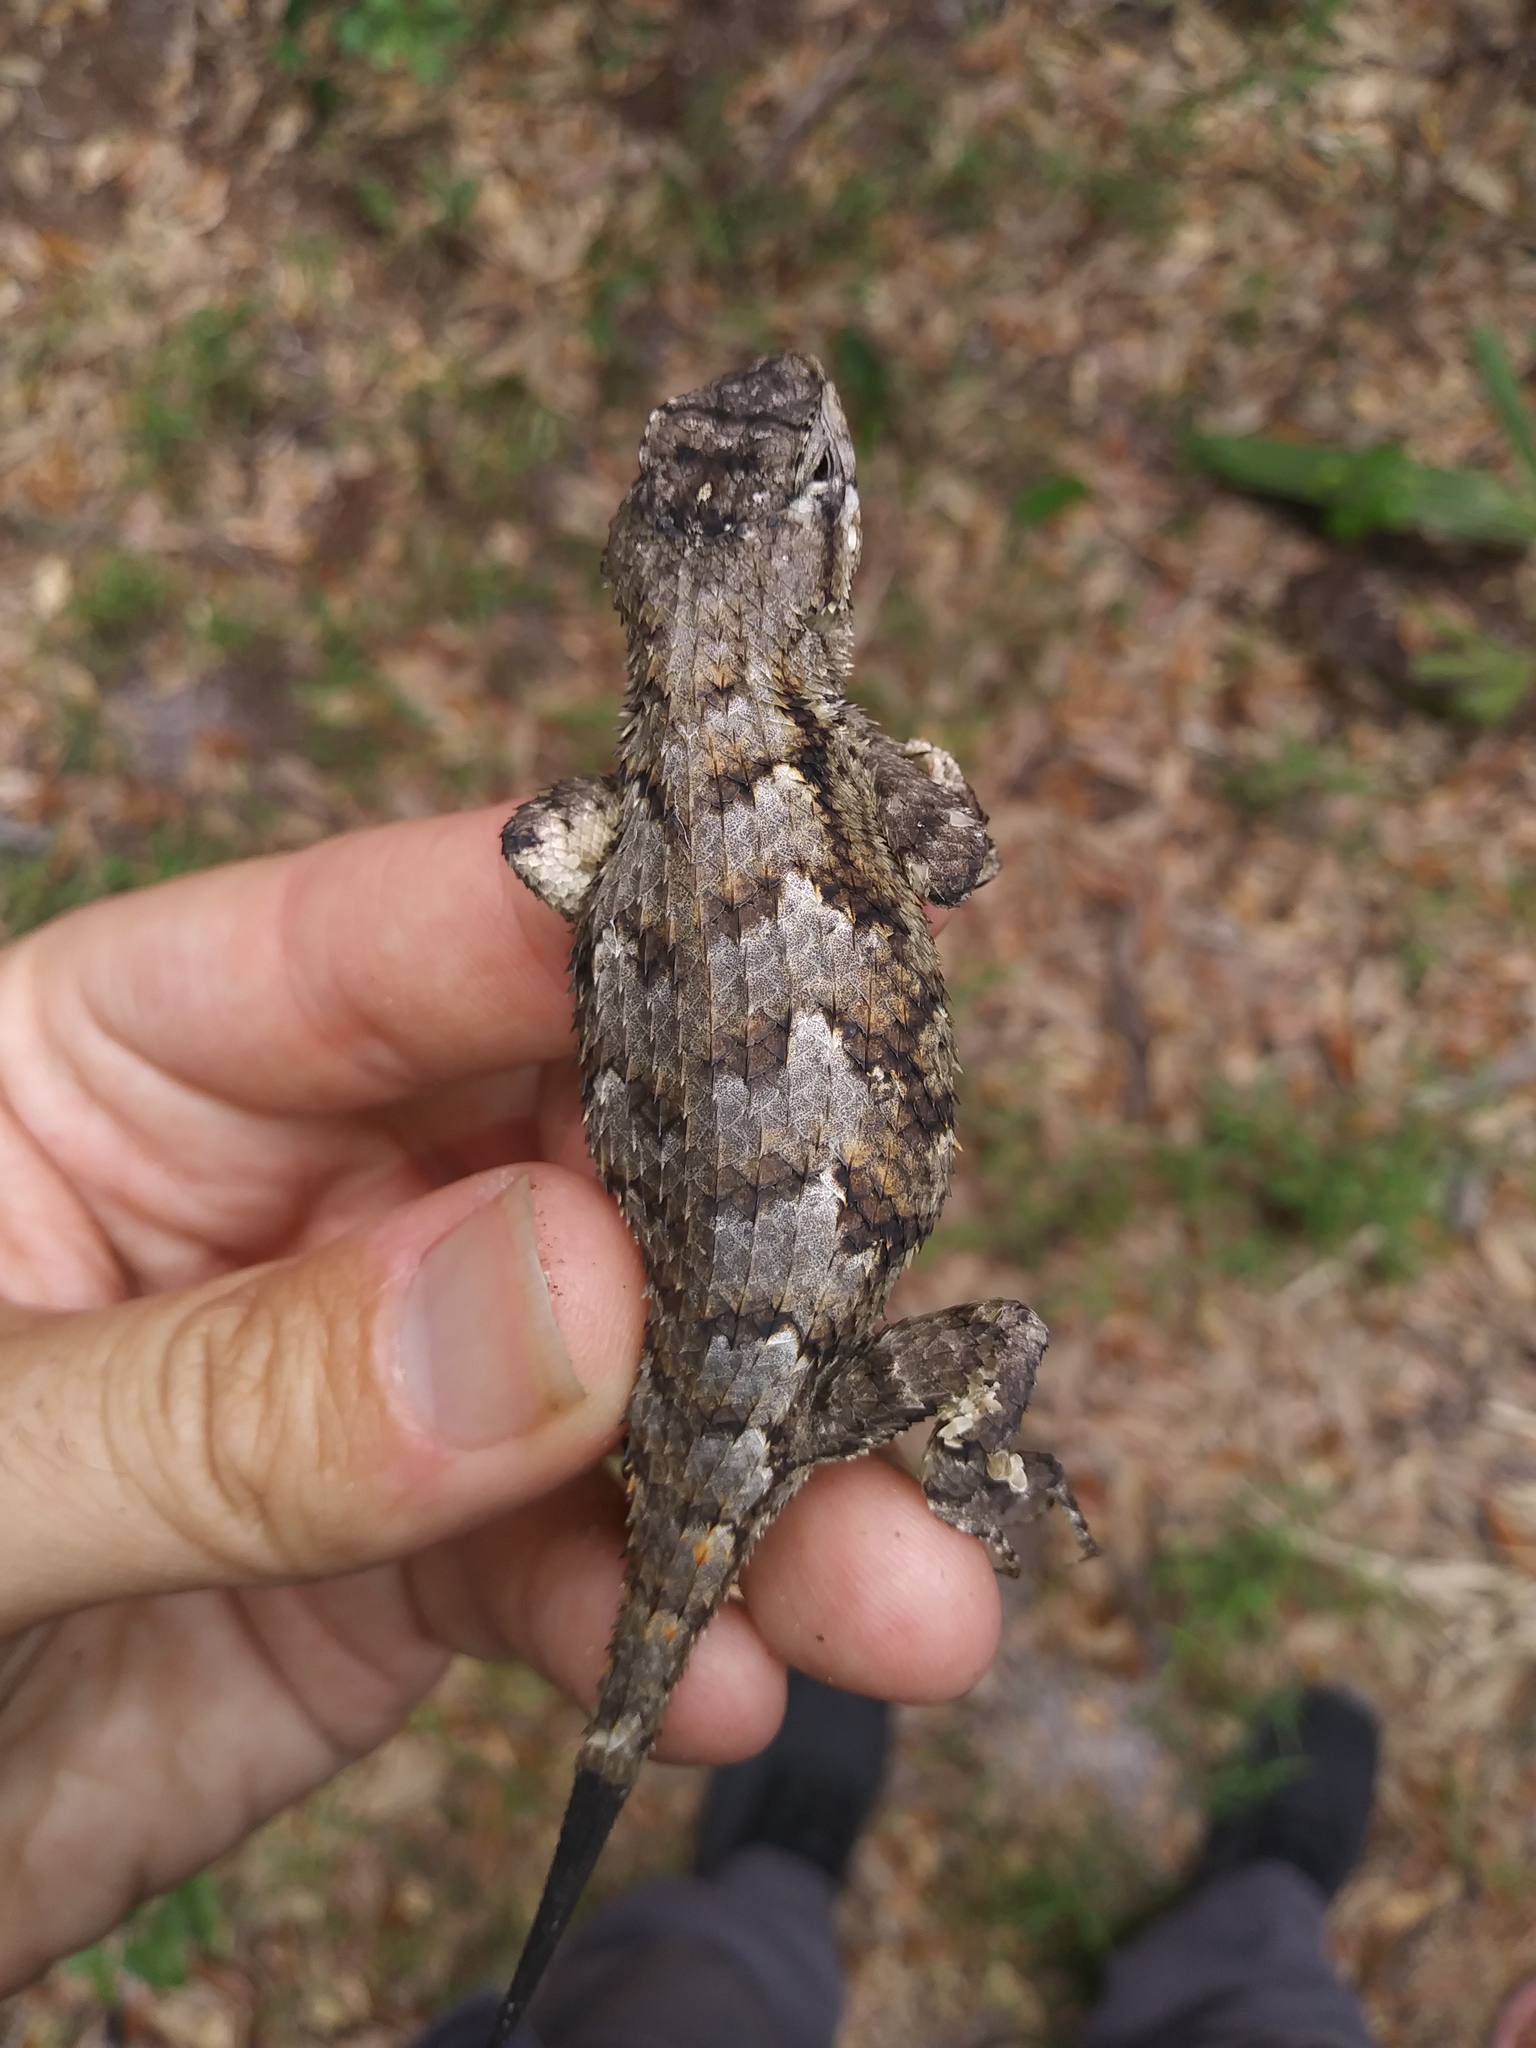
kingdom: Animalia
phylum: Chordata
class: Squamata
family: Phrynosomatidae
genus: Sceloporus
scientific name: Sceloporus undulatus
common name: Eastern fence lizard
